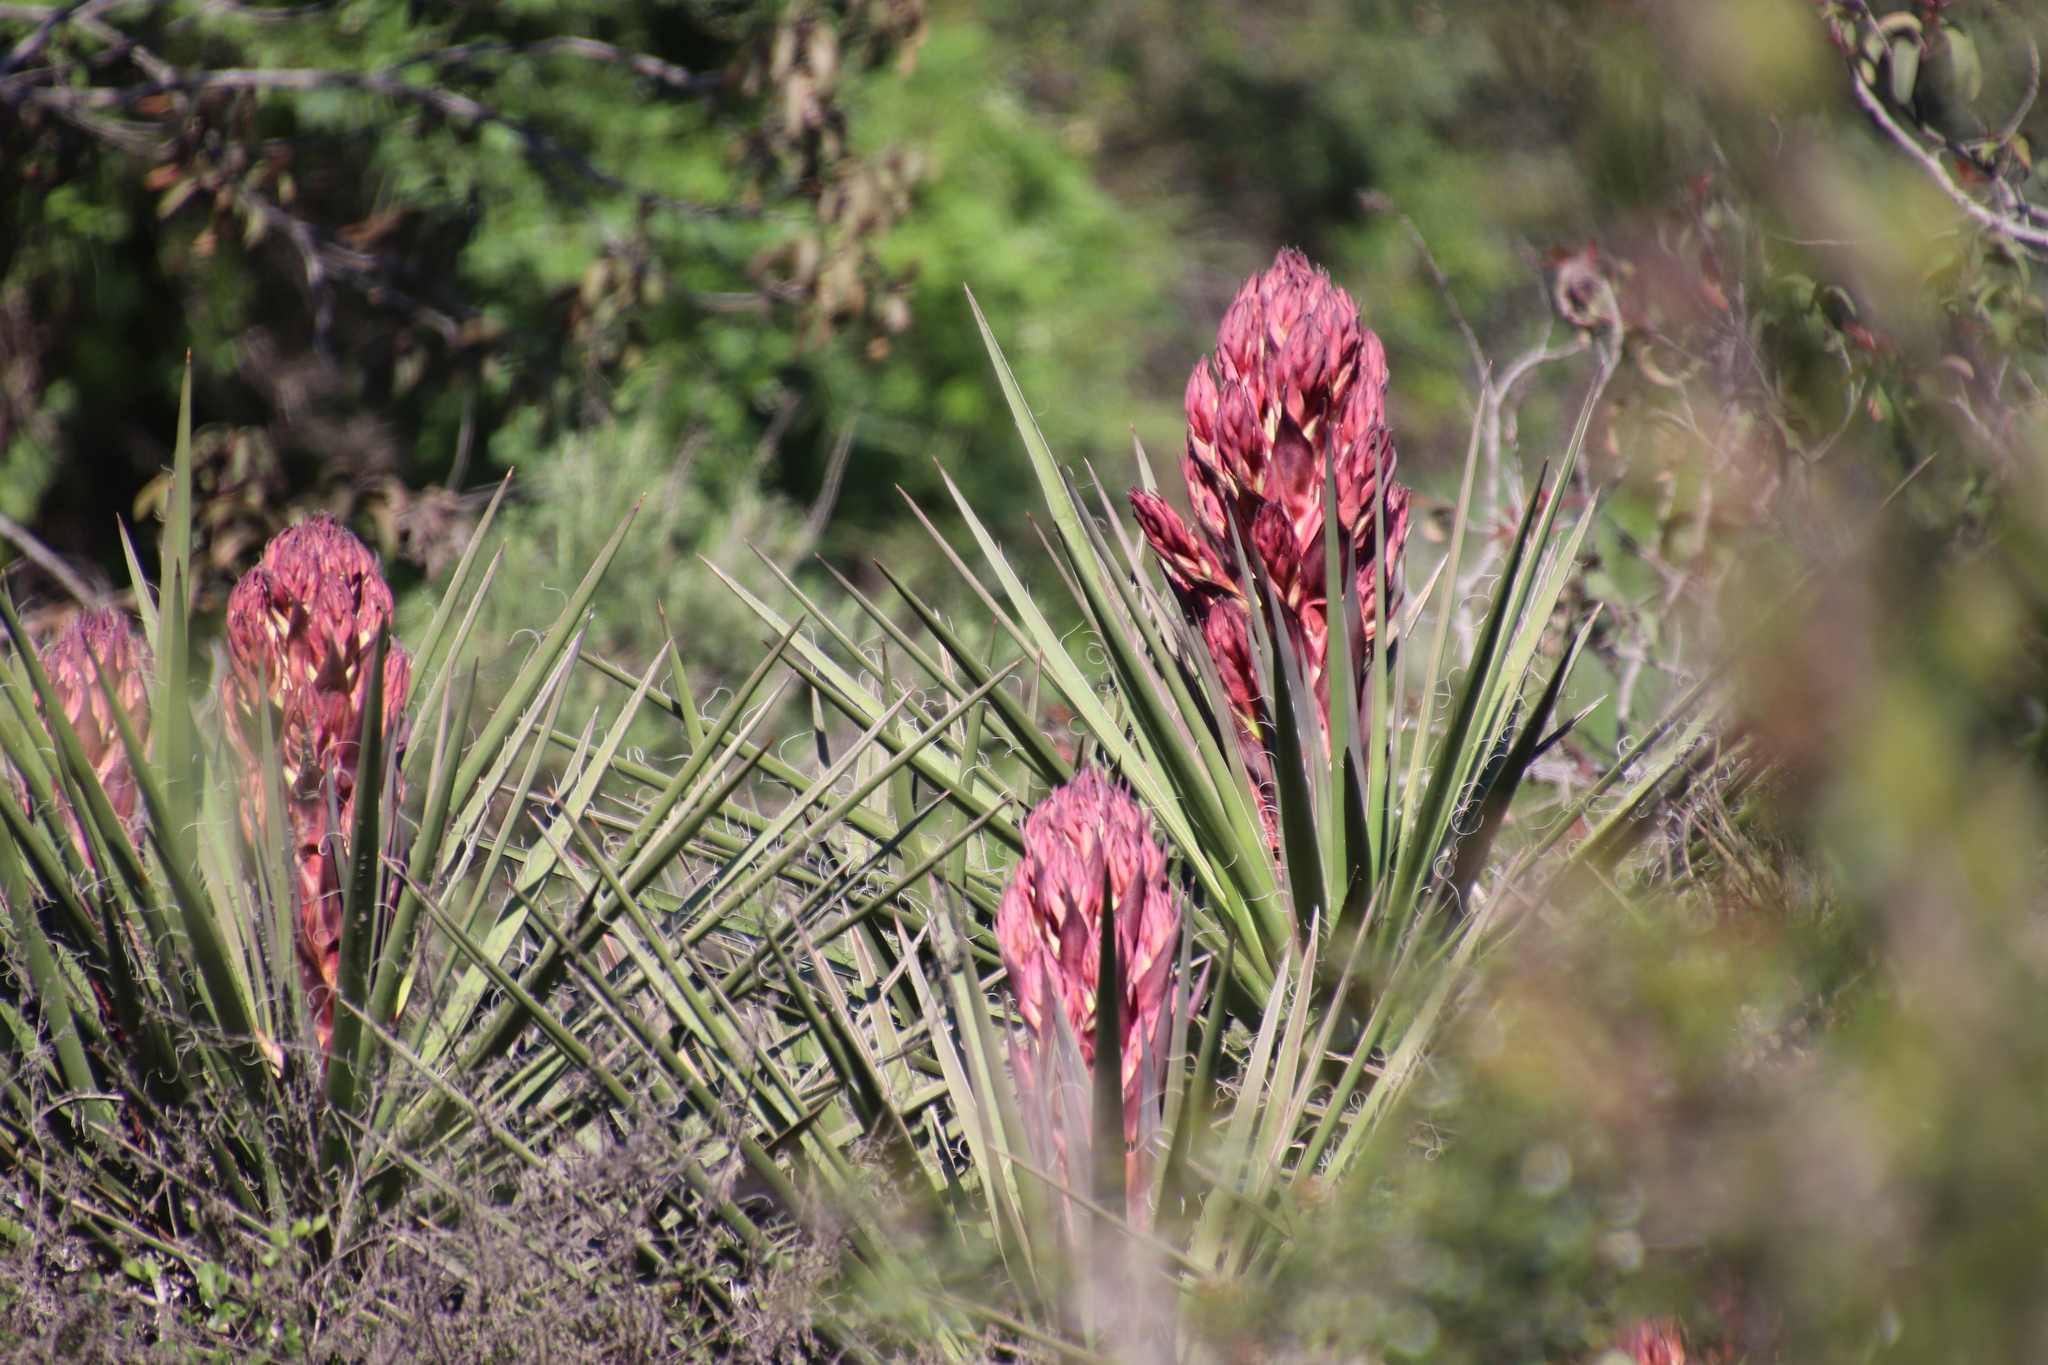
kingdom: Plantae
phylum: Tracheophyta
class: Liliopsida
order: Asparagales
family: Asparagaceae
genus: Yucca
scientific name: Yucca schidigera
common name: Mojave yucca
